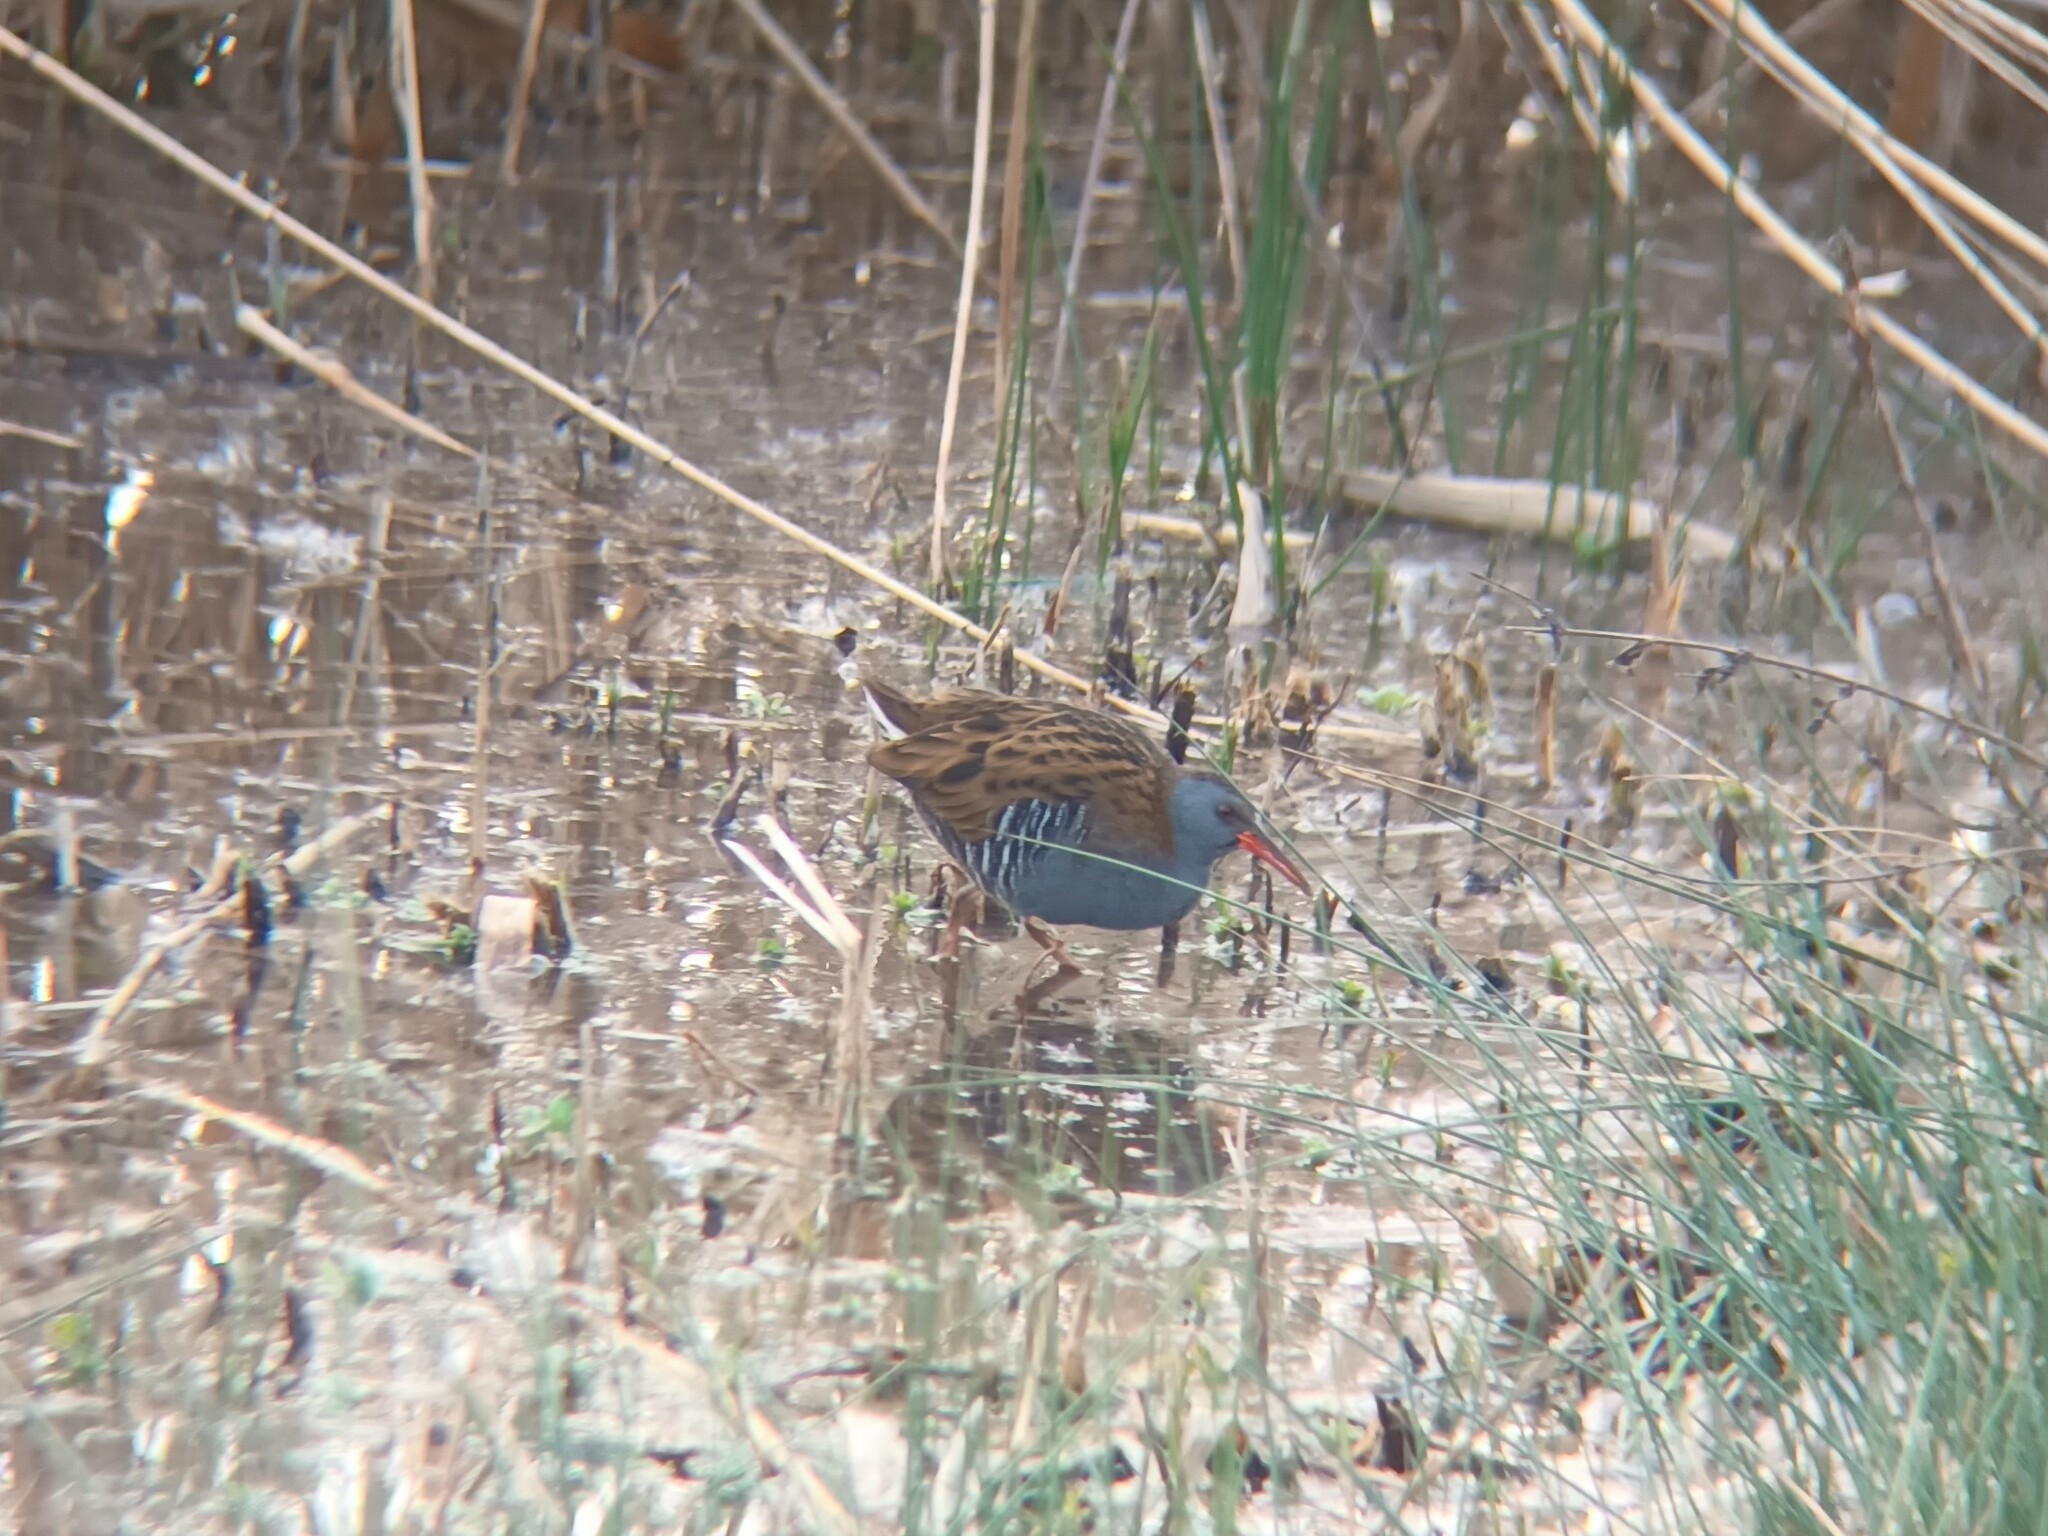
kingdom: Animalia
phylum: Chordata
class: Aves
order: Gruiformes
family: Rallidae
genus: Rallus
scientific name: Rallus aquaticus
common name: Water rail
